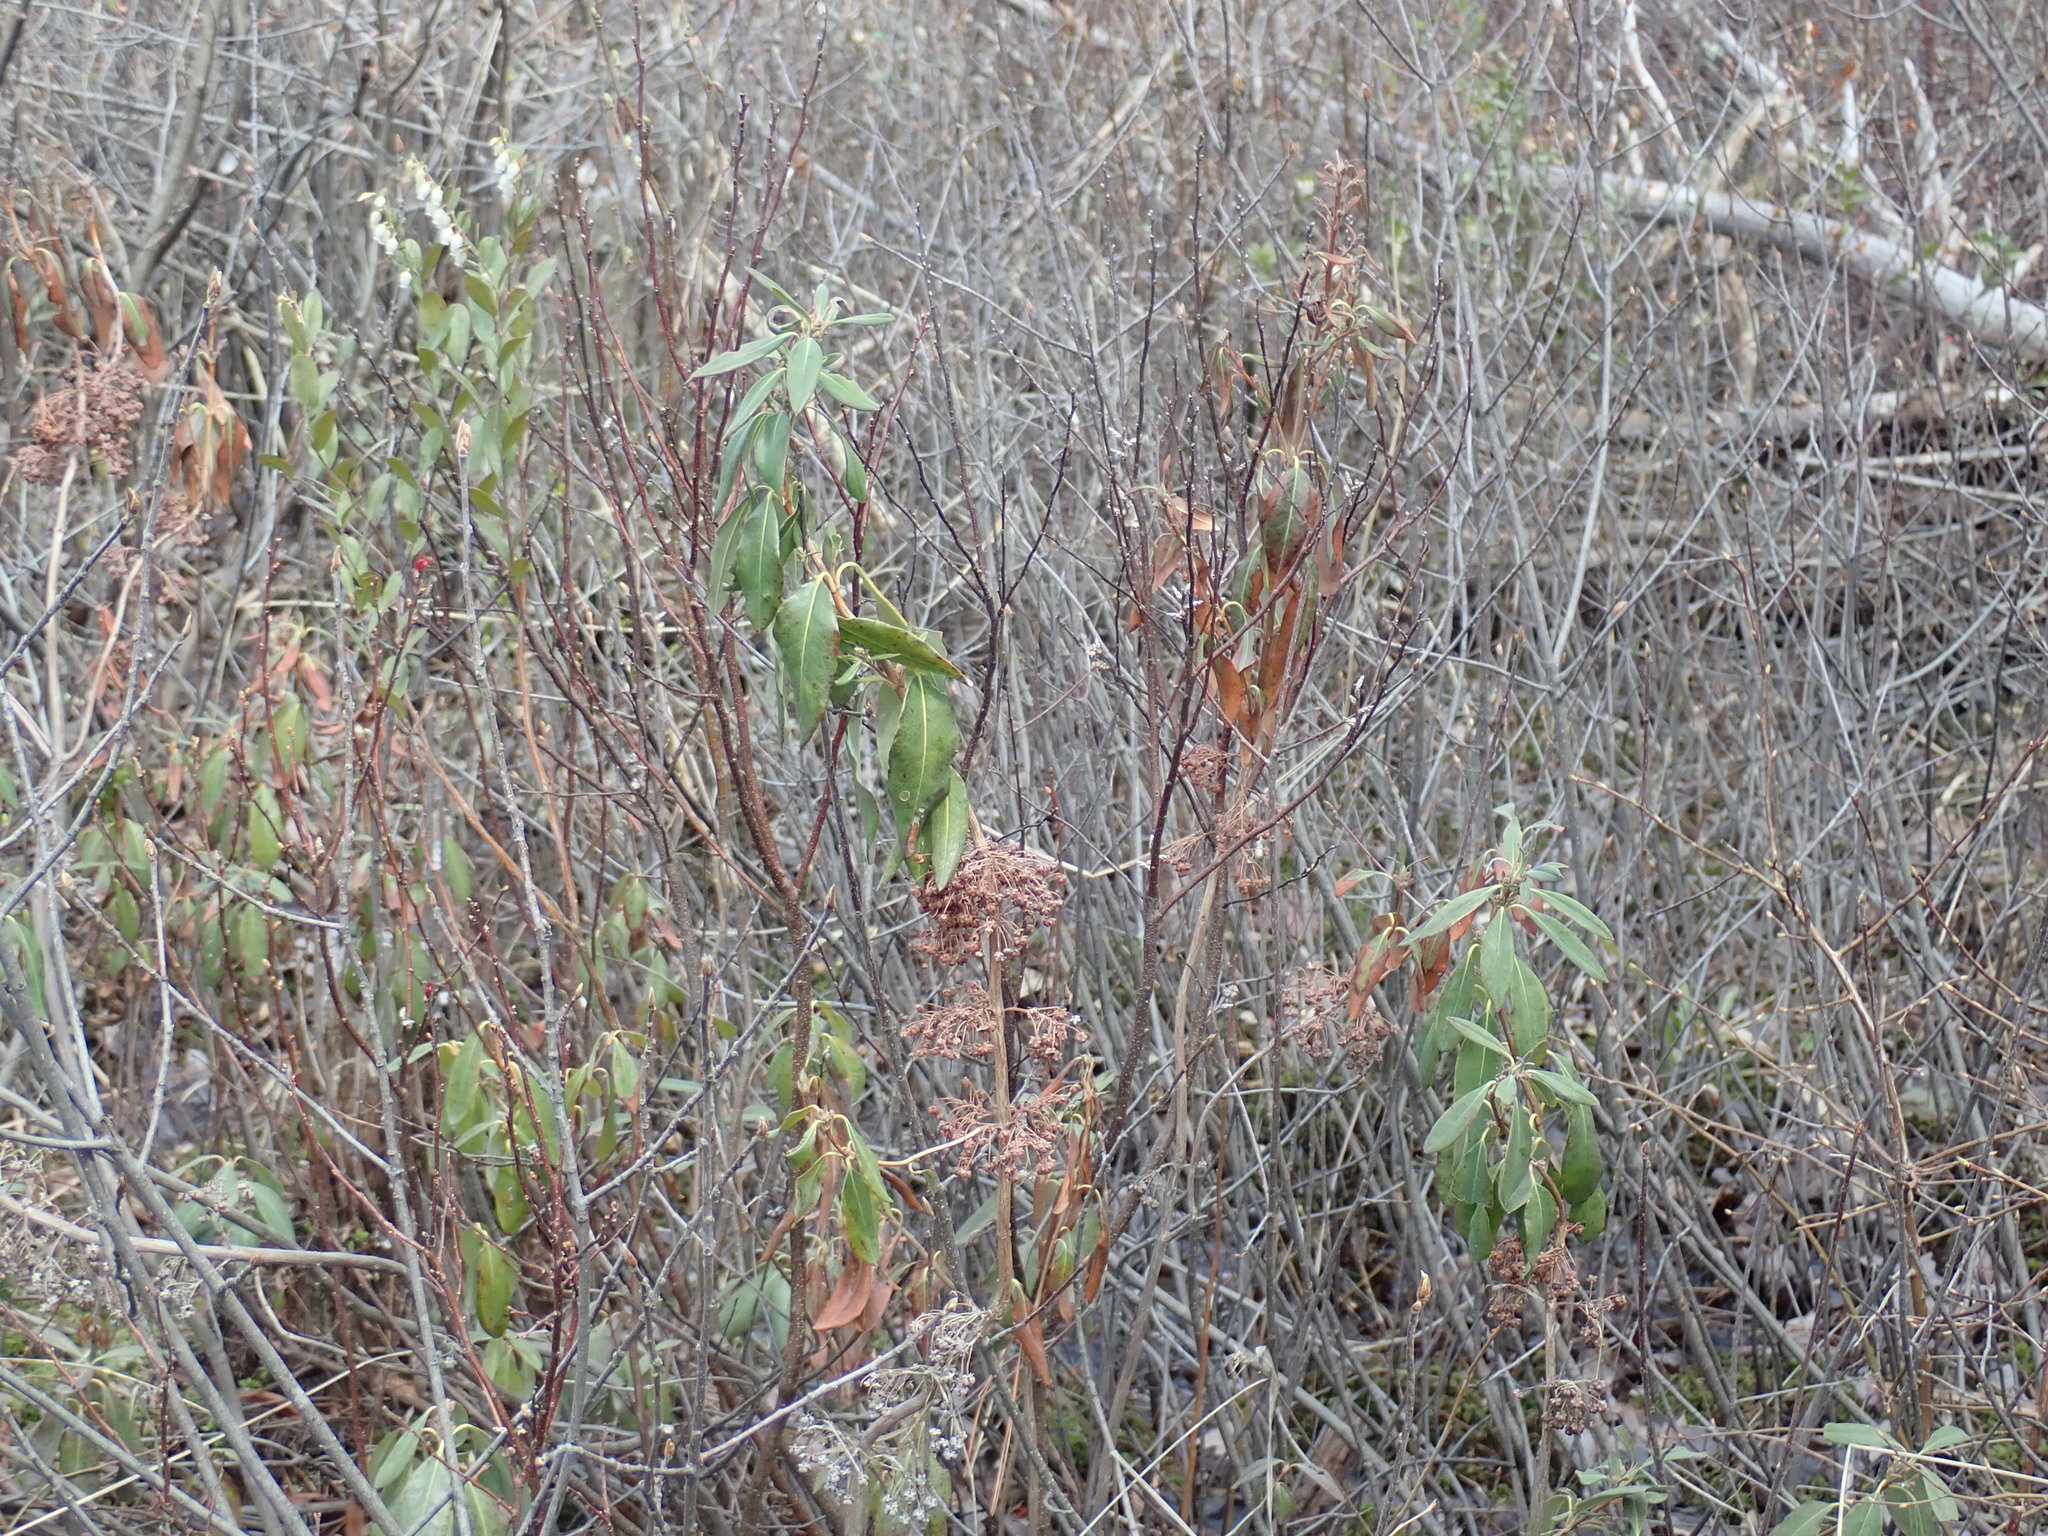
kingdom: Plantae
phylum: Tracheophyta
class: Magnoliopsida
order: Ericales
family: Ericaceae
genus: Kalmia
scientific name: Kalmia angustifolia
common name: Sheep-laurel
